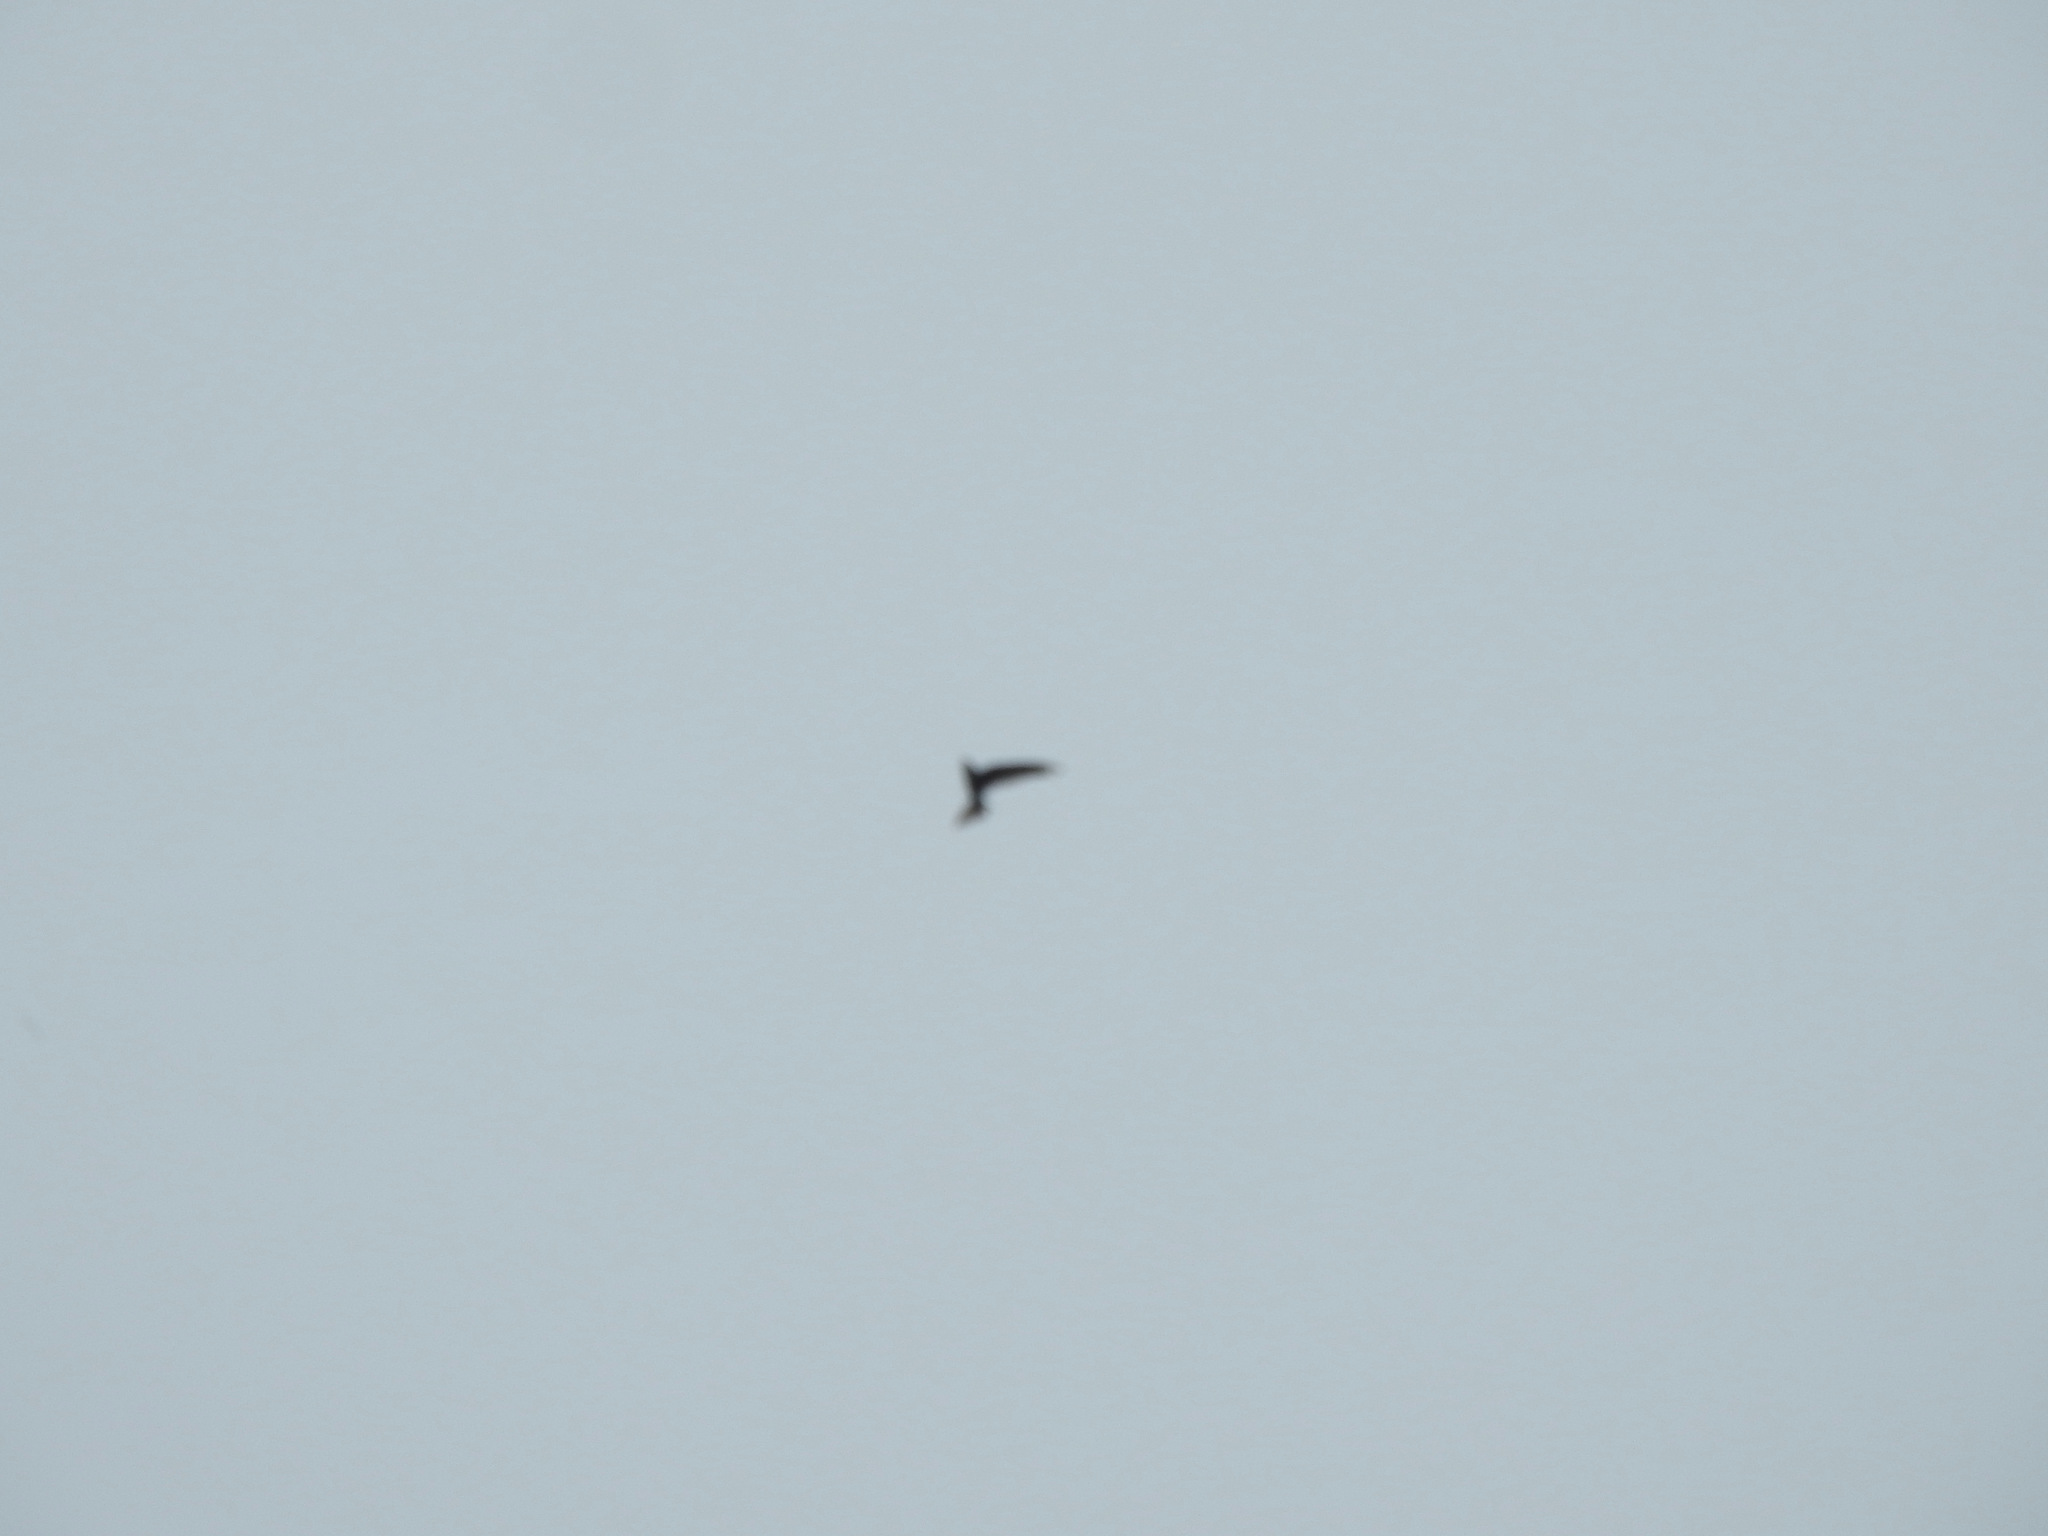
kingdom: Animalia
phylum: Chordata
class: Aves
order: Apodiformes
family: Apodidae
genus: Cypsiurus
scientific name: Cypsiurus balasiensis
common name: Asian palm swift
